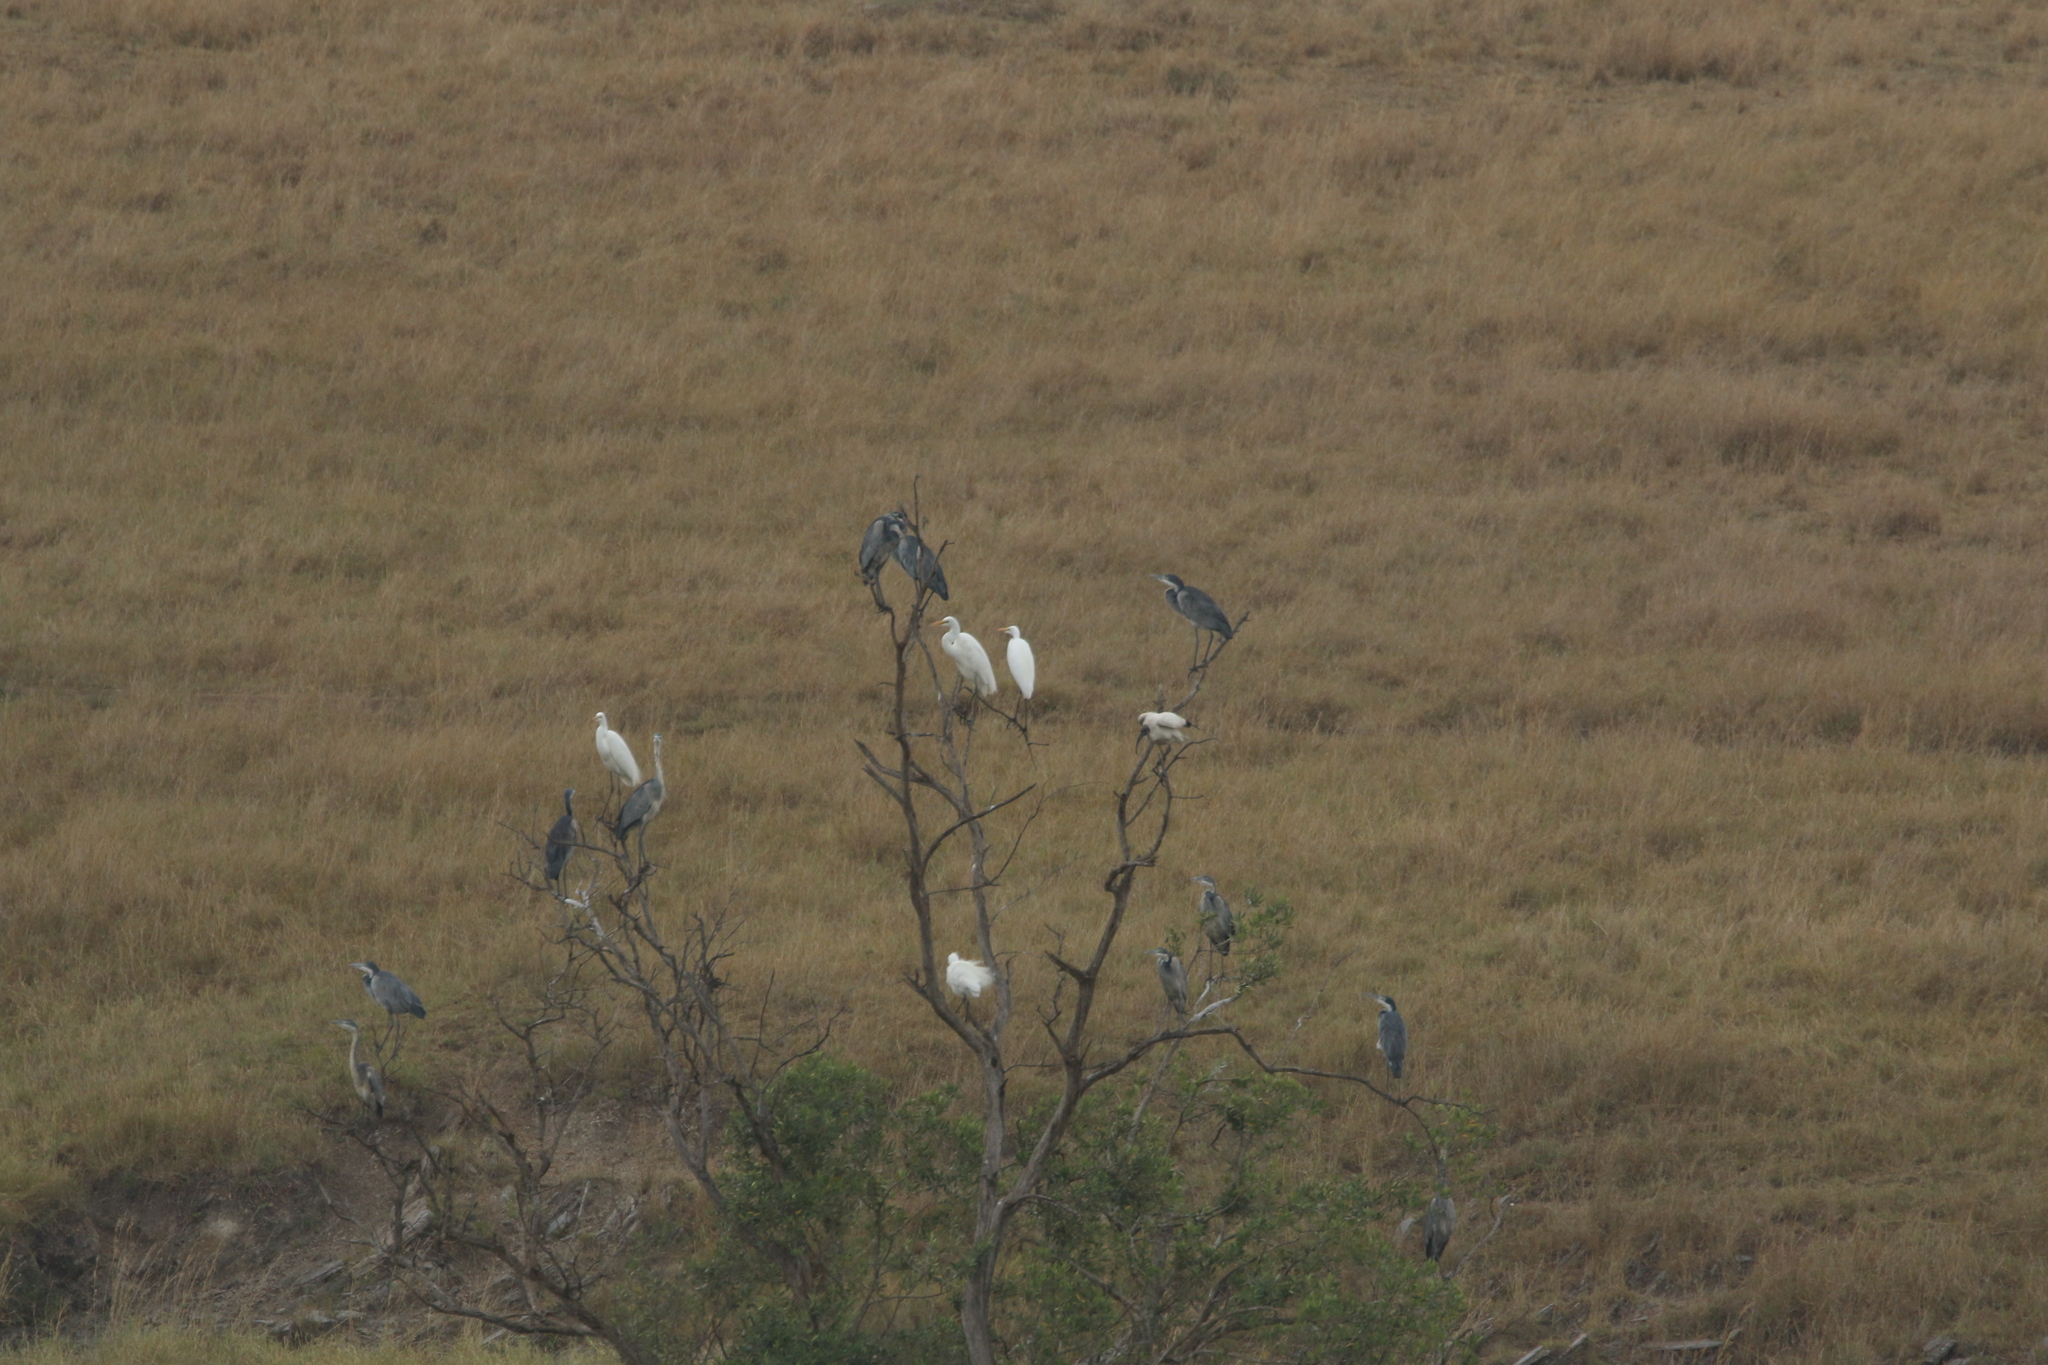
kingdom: Animalia
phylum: Chordata
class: Aves
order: Pelecaniformes
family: Ardeidae
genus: Ardea
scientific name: Ardea melanocephala
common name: Black-headed heron
